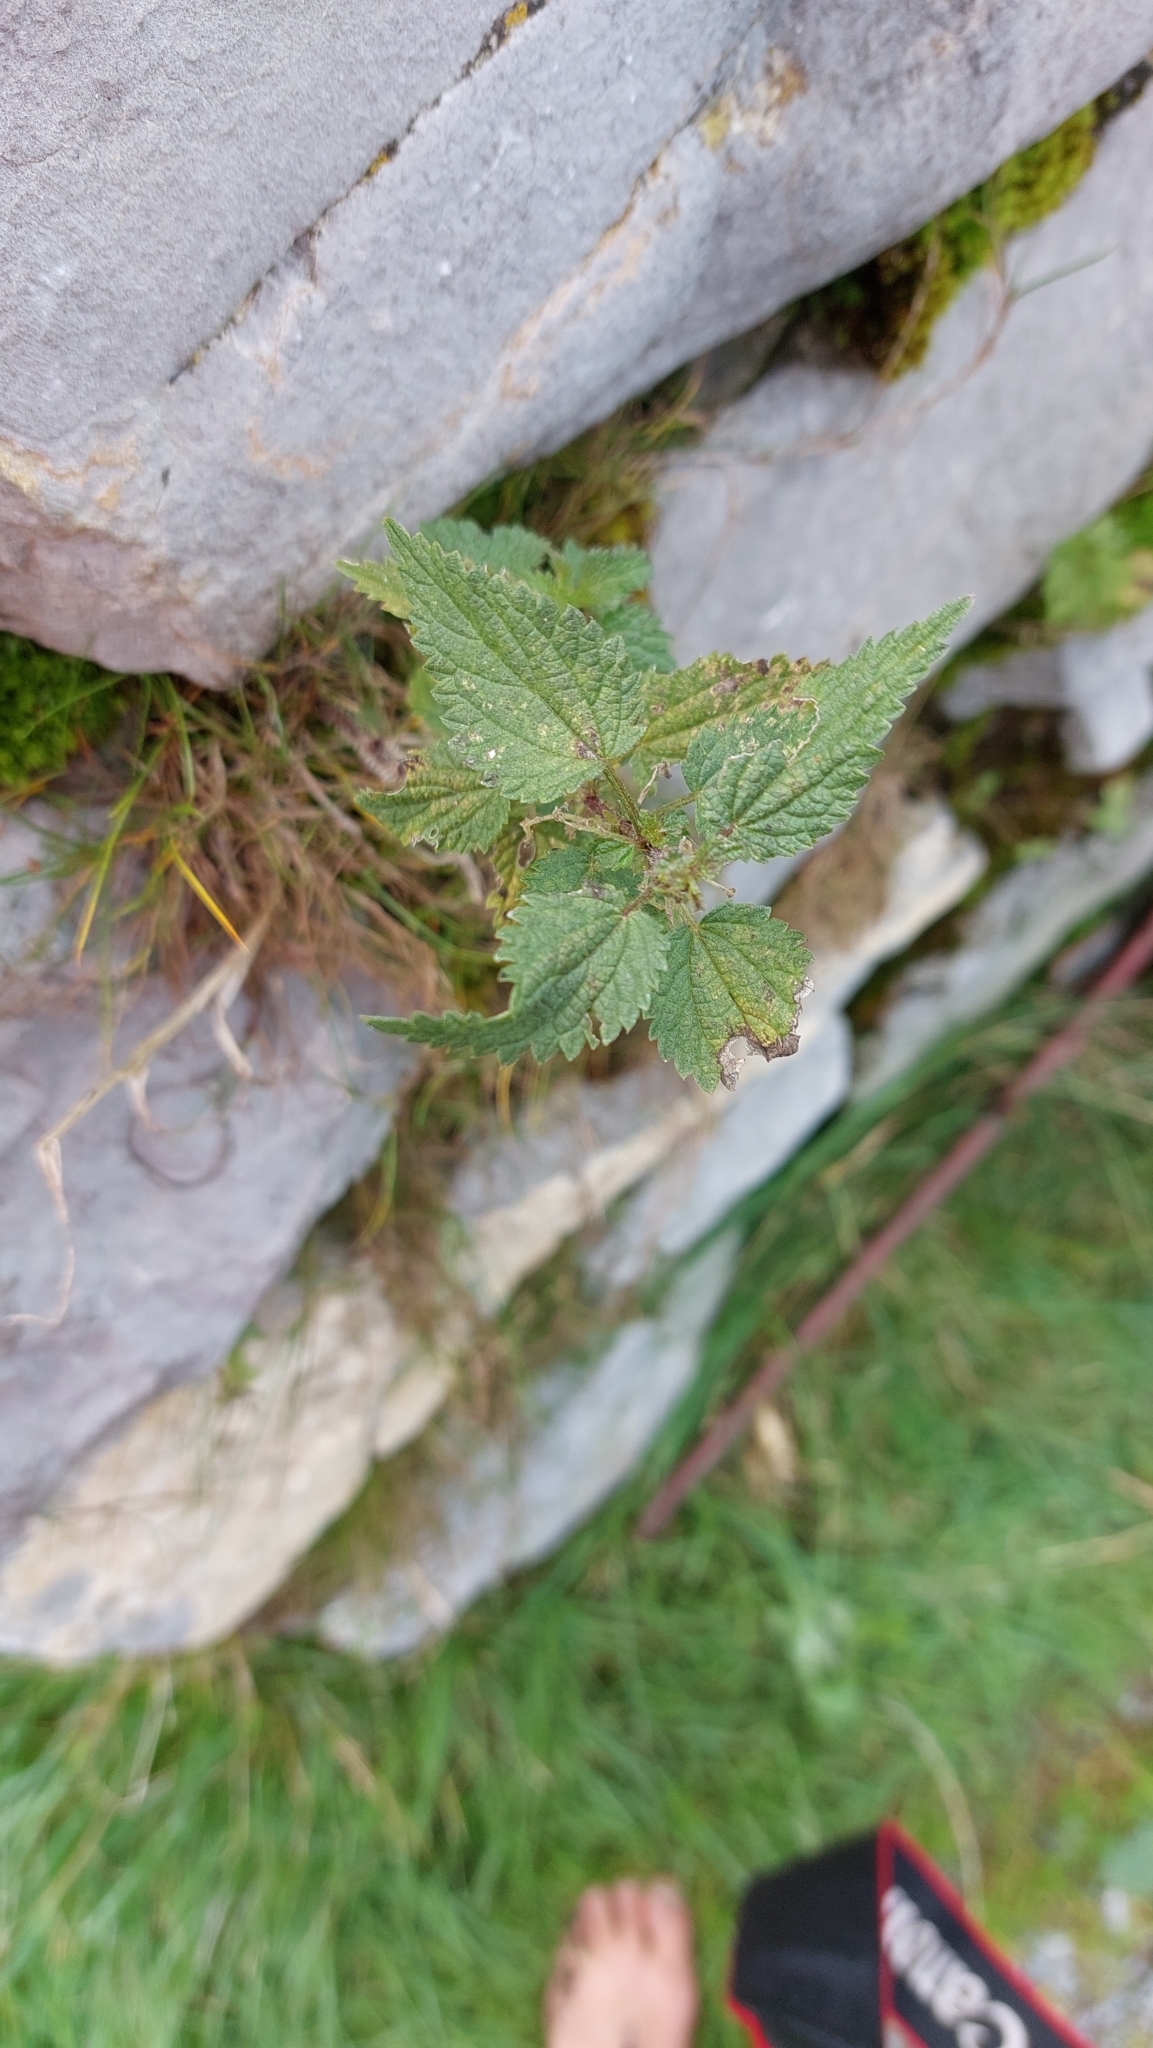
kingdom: Plantae
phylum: Tracheophyta
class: Magnoliopsida
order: Rosales
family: Urticaceae
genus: Urtica
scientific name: Urtica dioica
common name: Common nettle
